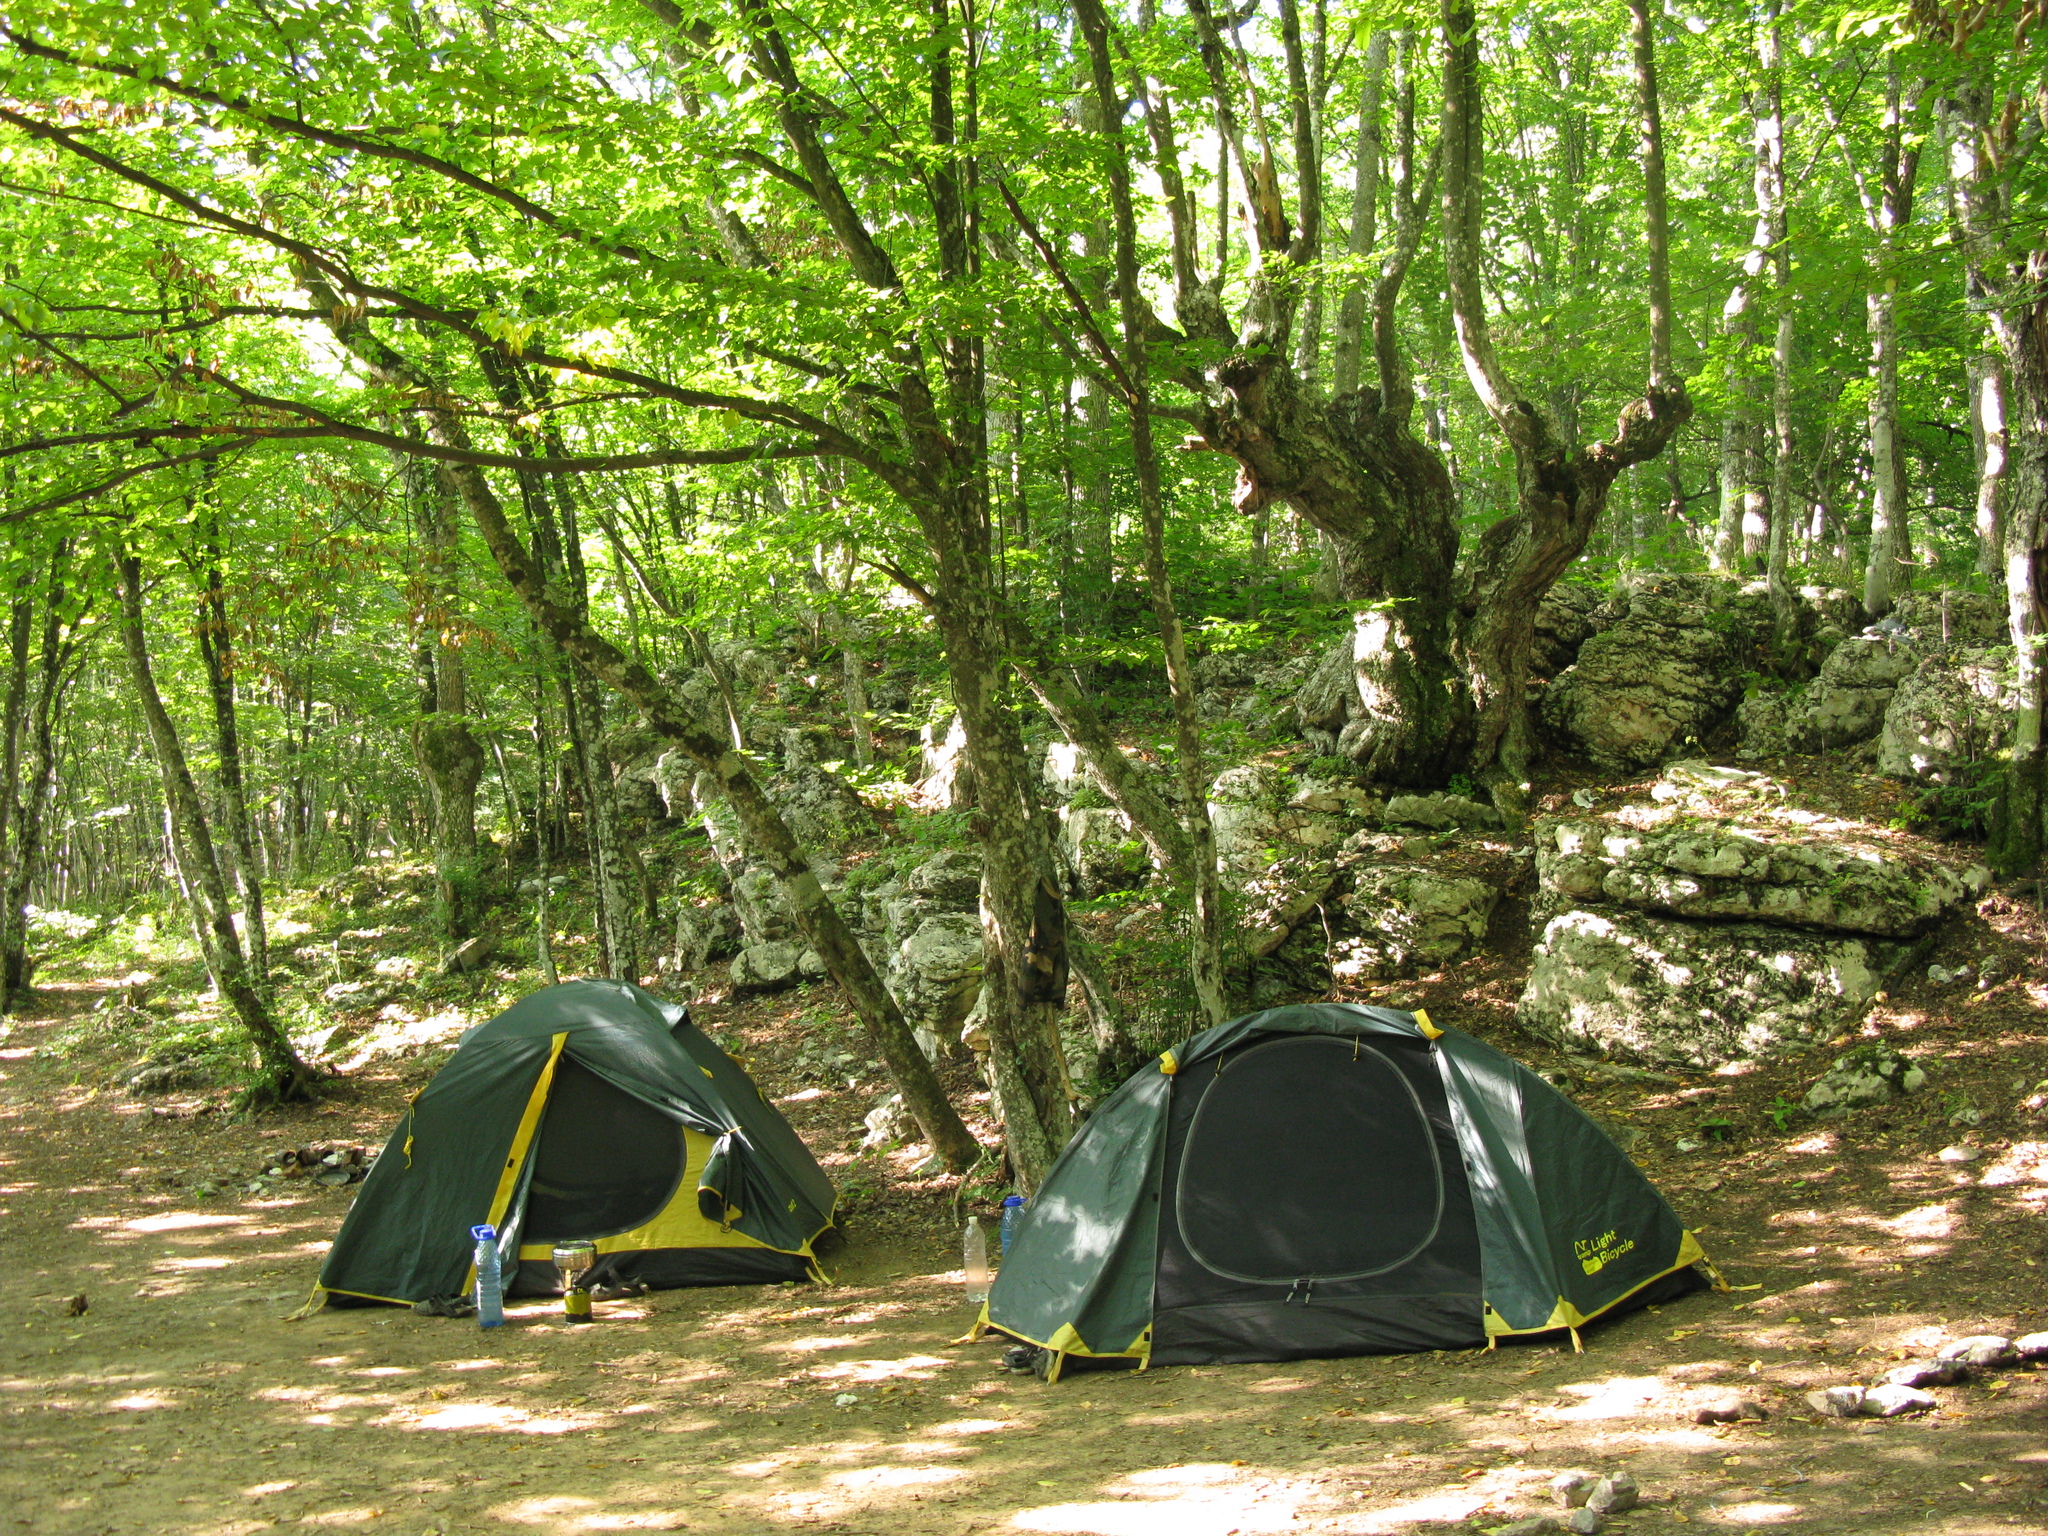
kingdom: Plantae
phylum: Tracheophyta
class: Magnoliopsida
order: Fagales
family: Fagaceae
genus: Fagus
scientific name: Fagus taurica
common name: Crimean beech
